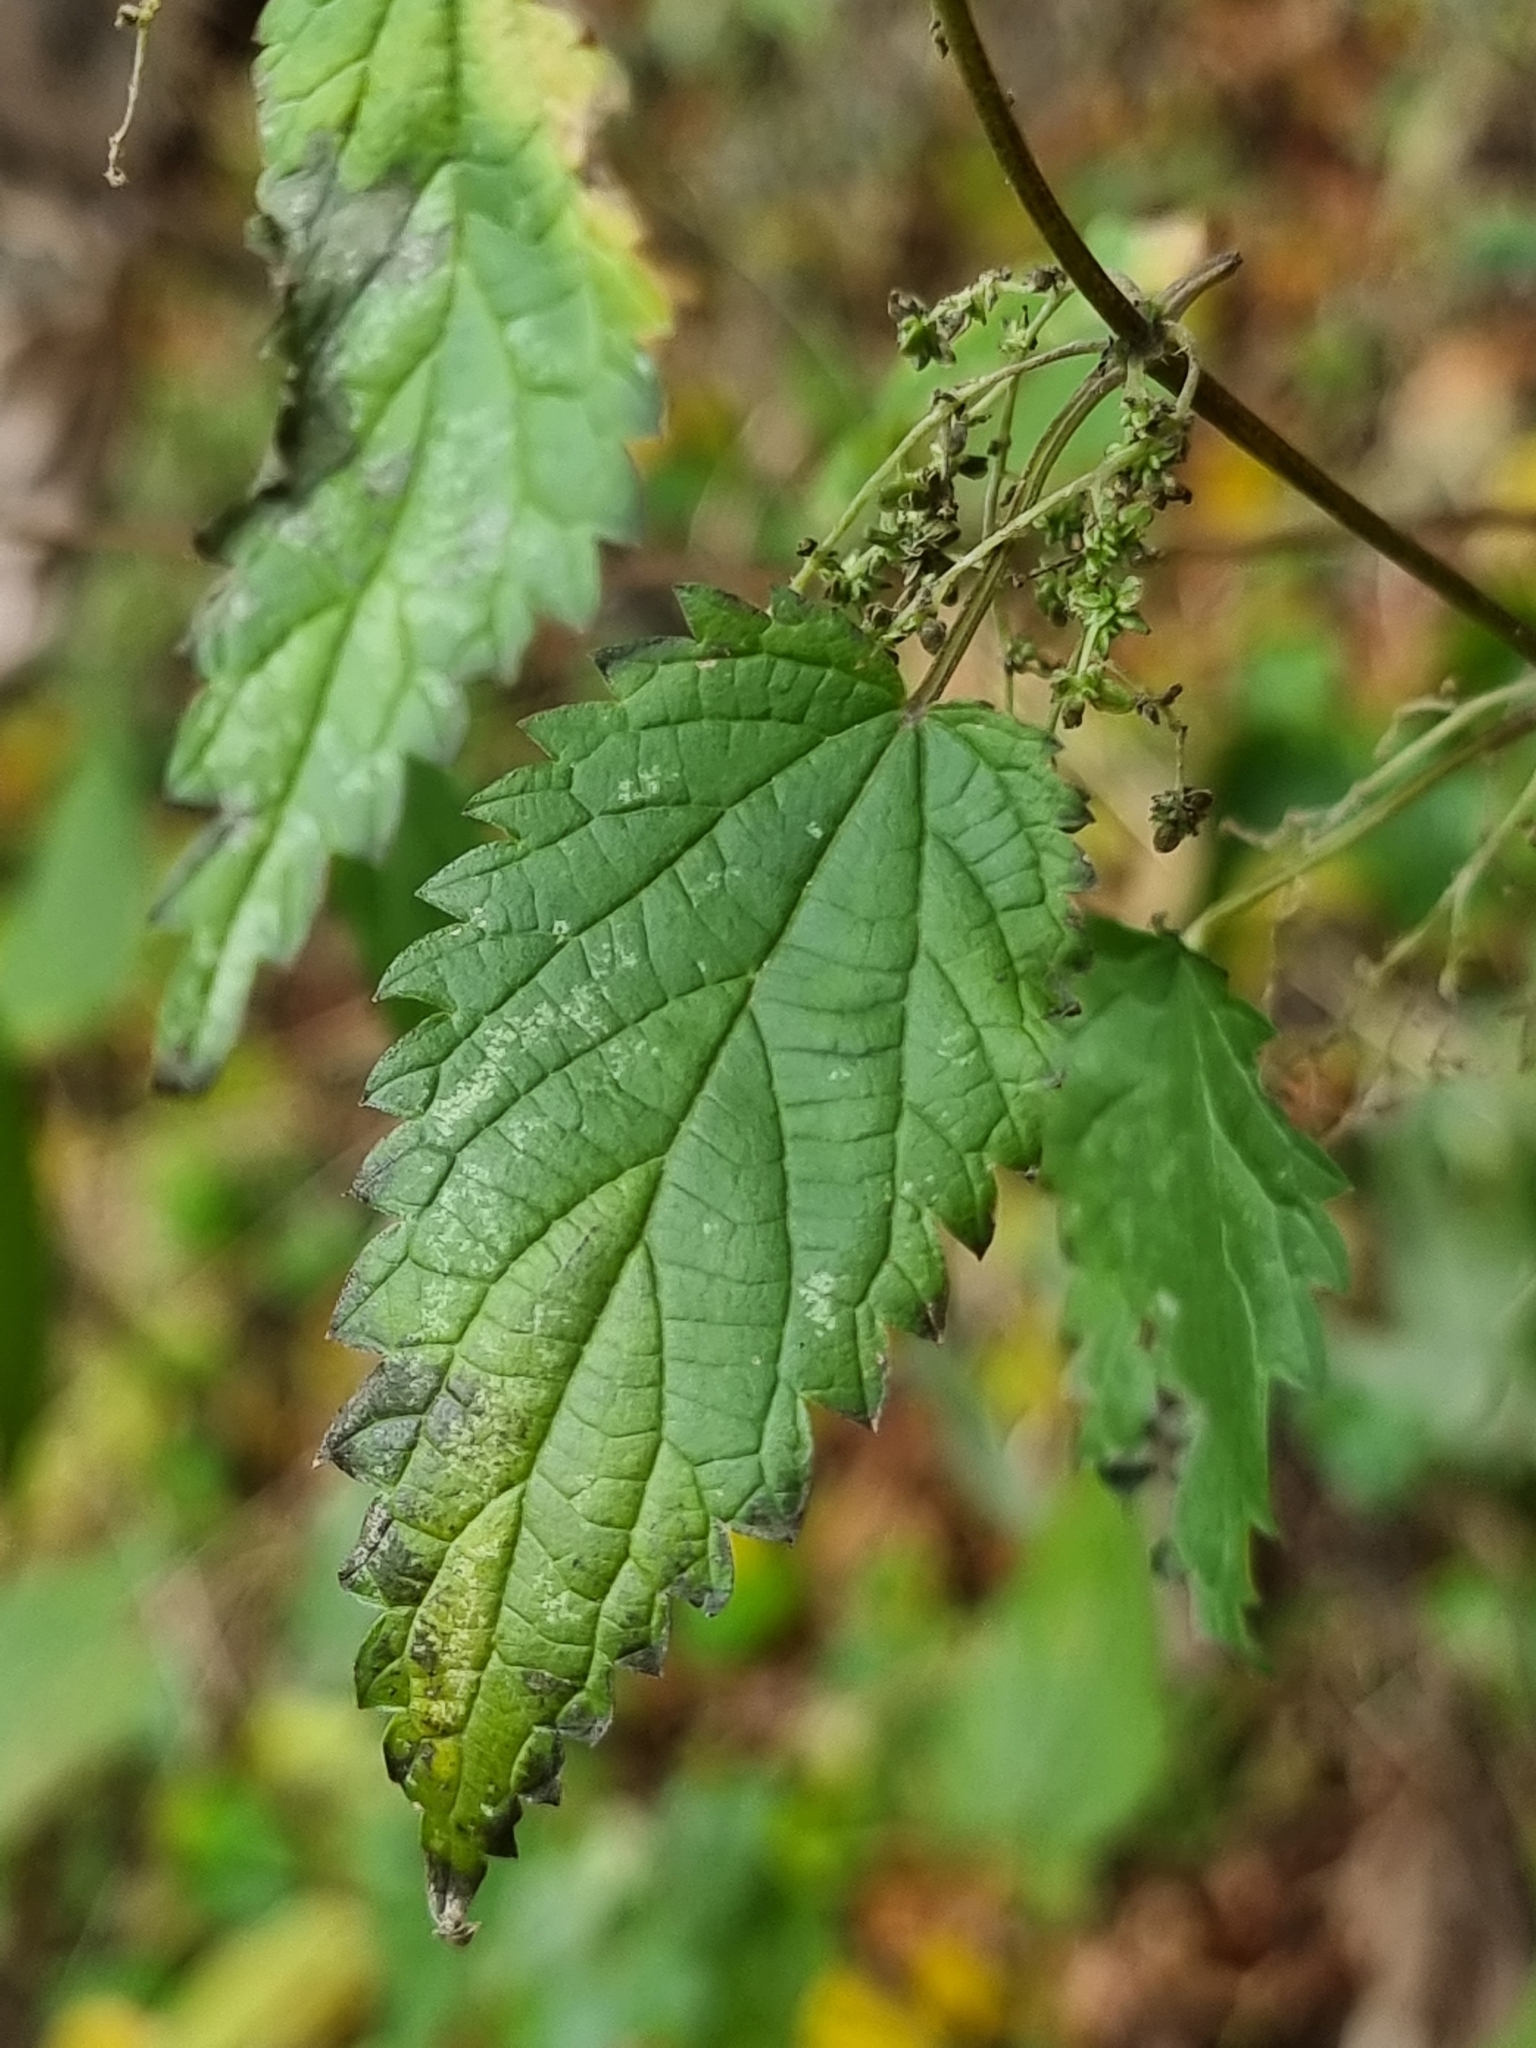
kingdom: Plantae
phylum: Tracheophyta
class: Magnoliopsida
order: Rosales
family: Urticaceae
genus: Urtica
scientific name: Urtica dioica
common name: Common nettle
